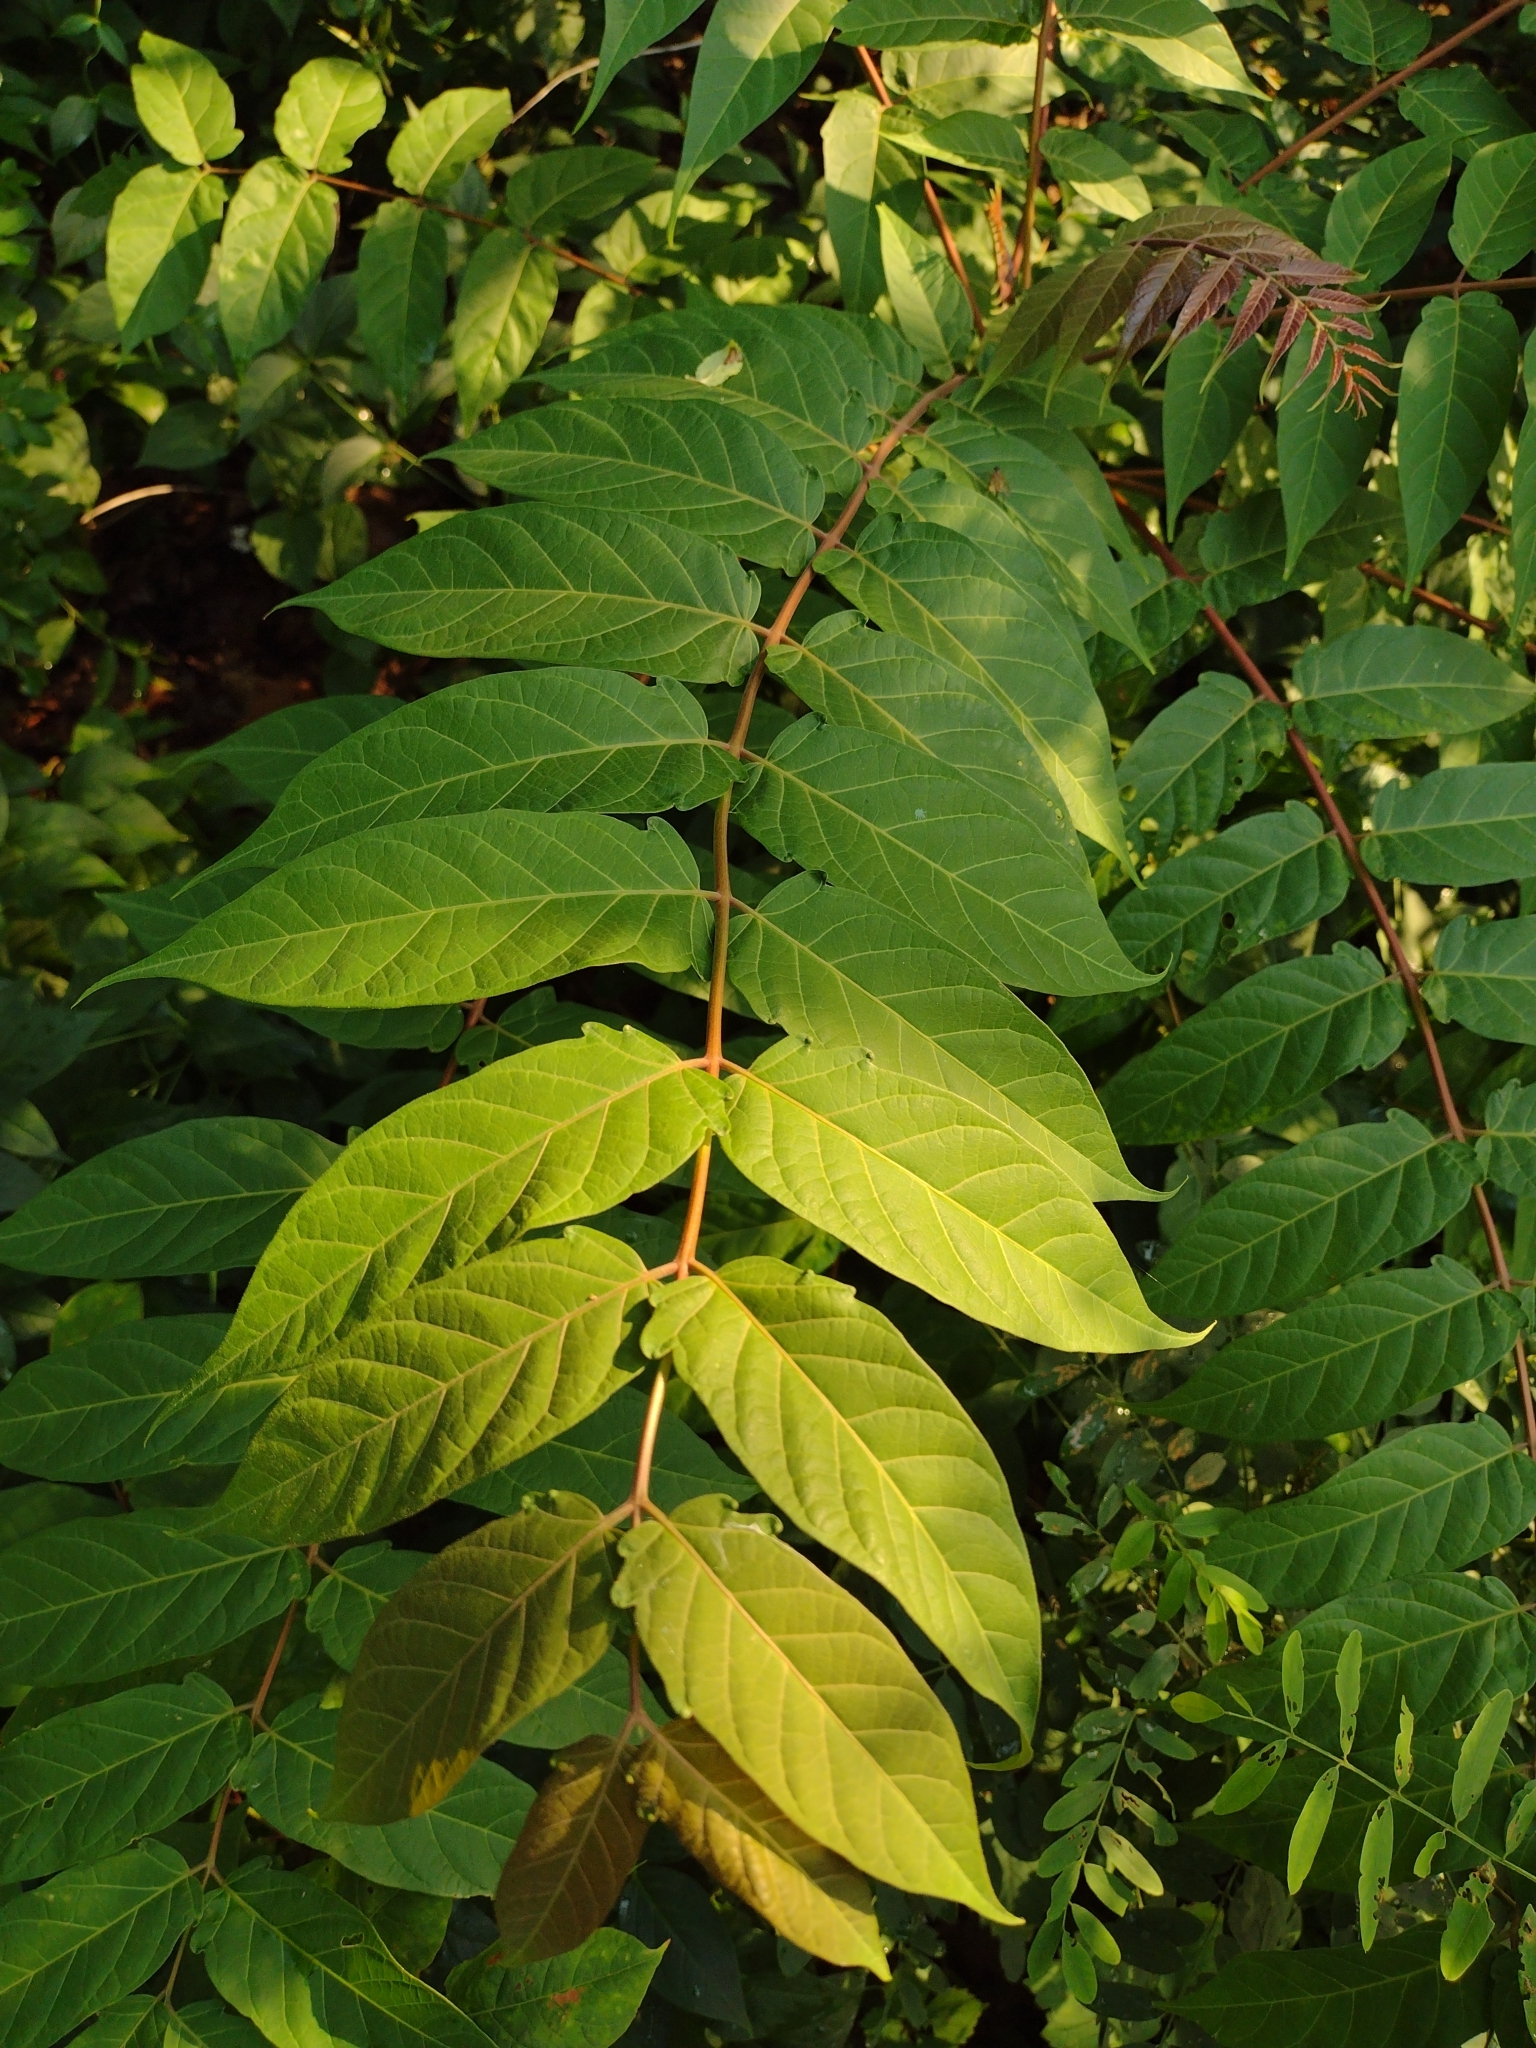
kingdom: Plantae
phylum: Tracheophyta
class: Magnoliopsida
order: Sapindales
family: Simaroubaceae
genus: Ailanthus
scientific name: Ailanthus altissima
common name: Tree-of-heaven
